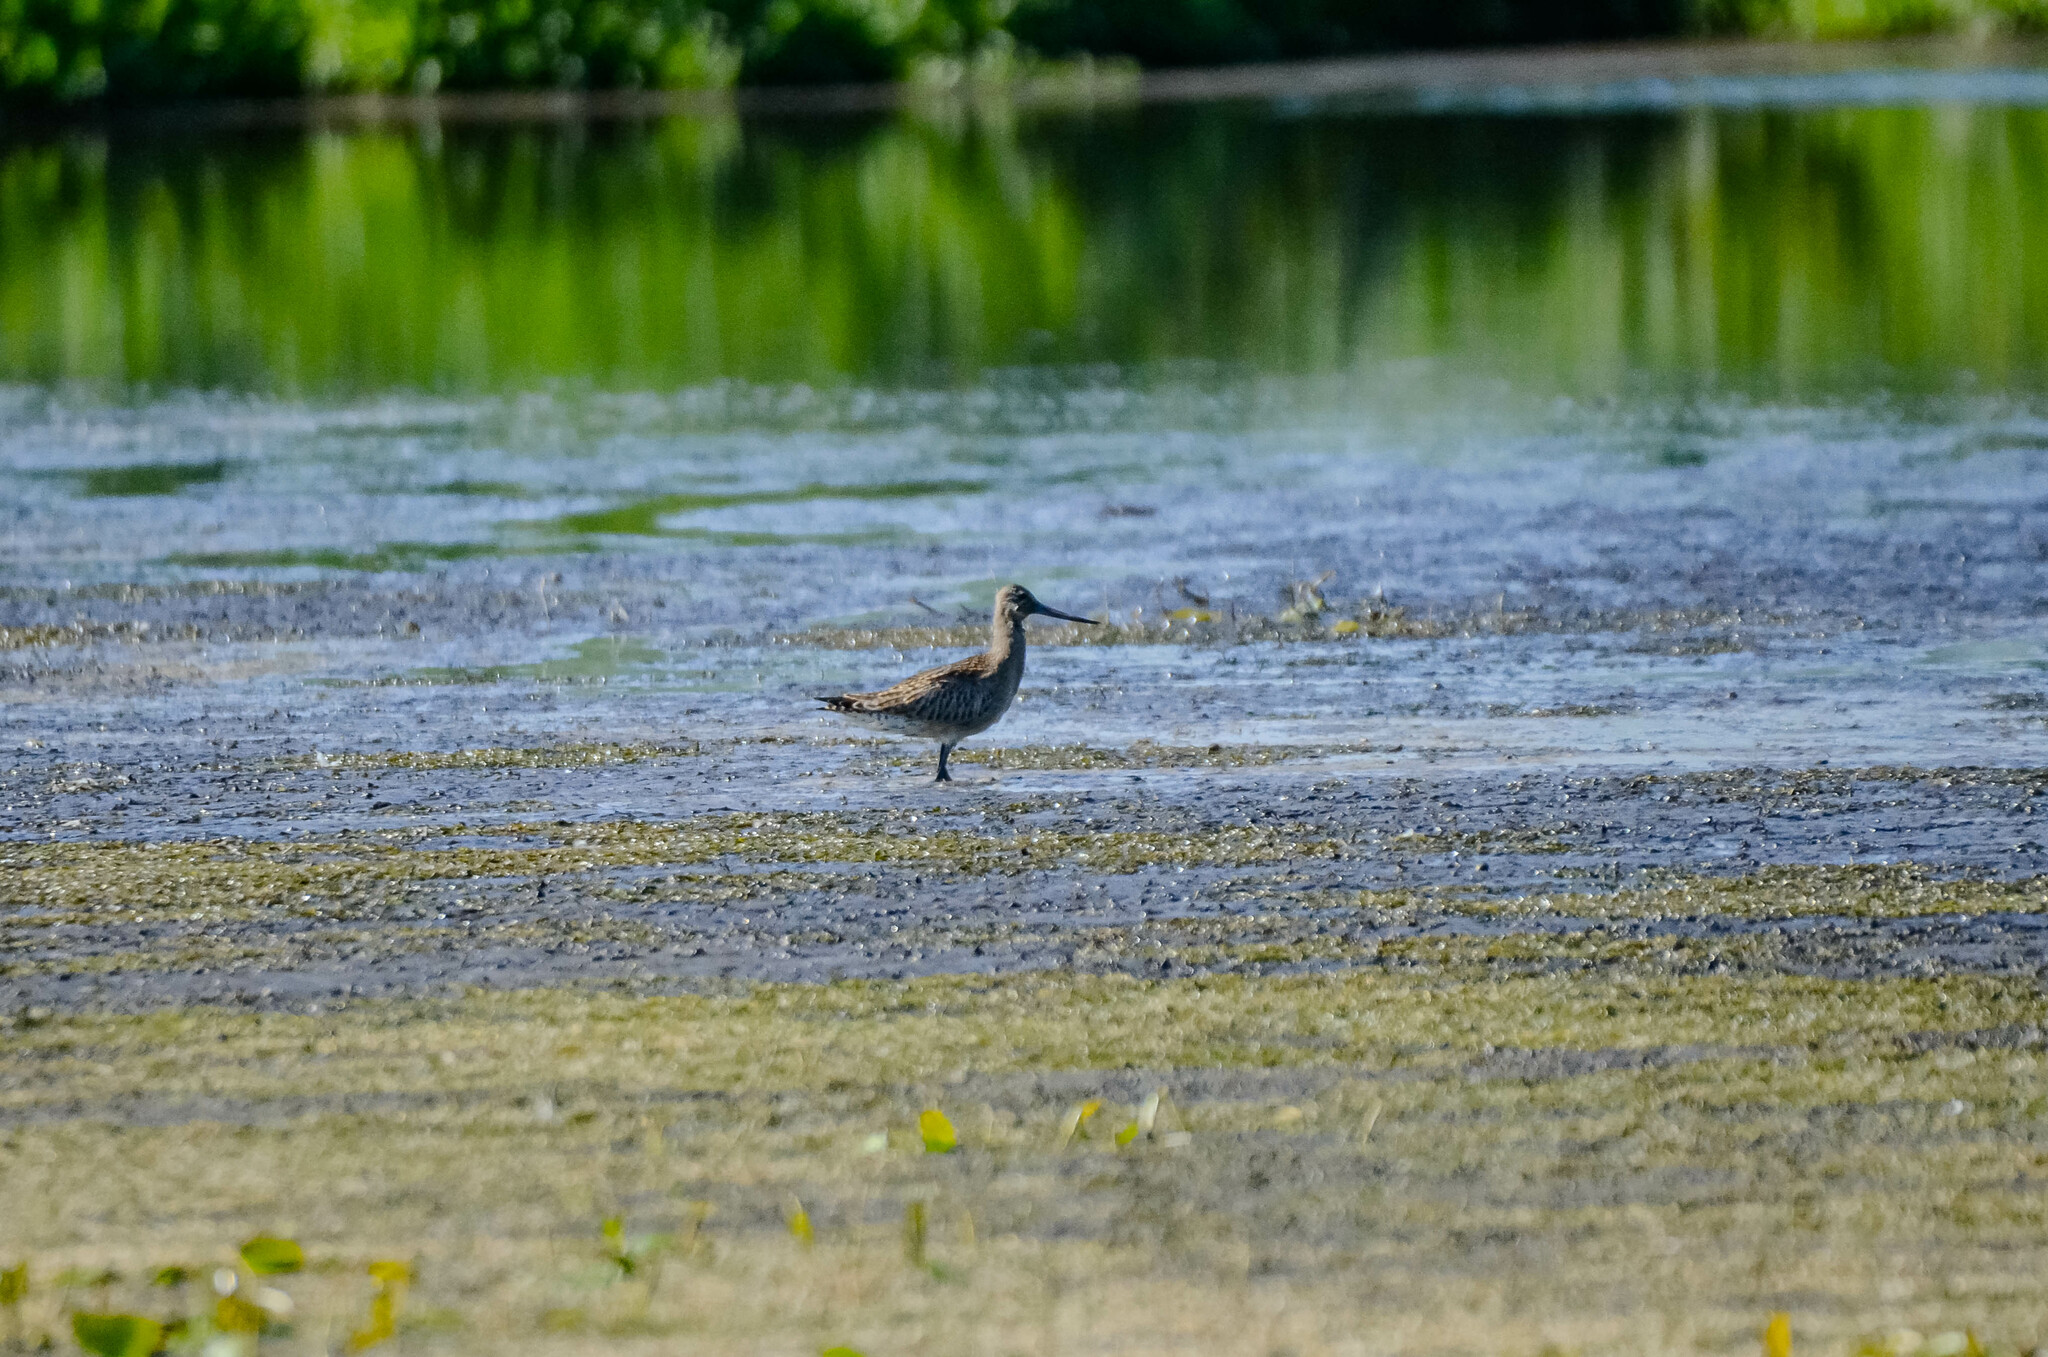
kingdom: Animalia
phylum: Chordata
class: Aves
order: Charadriiformes
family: Scolopacidae
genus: Limosa
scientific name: Limosa lapponica
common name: Bar-tailed godwit
